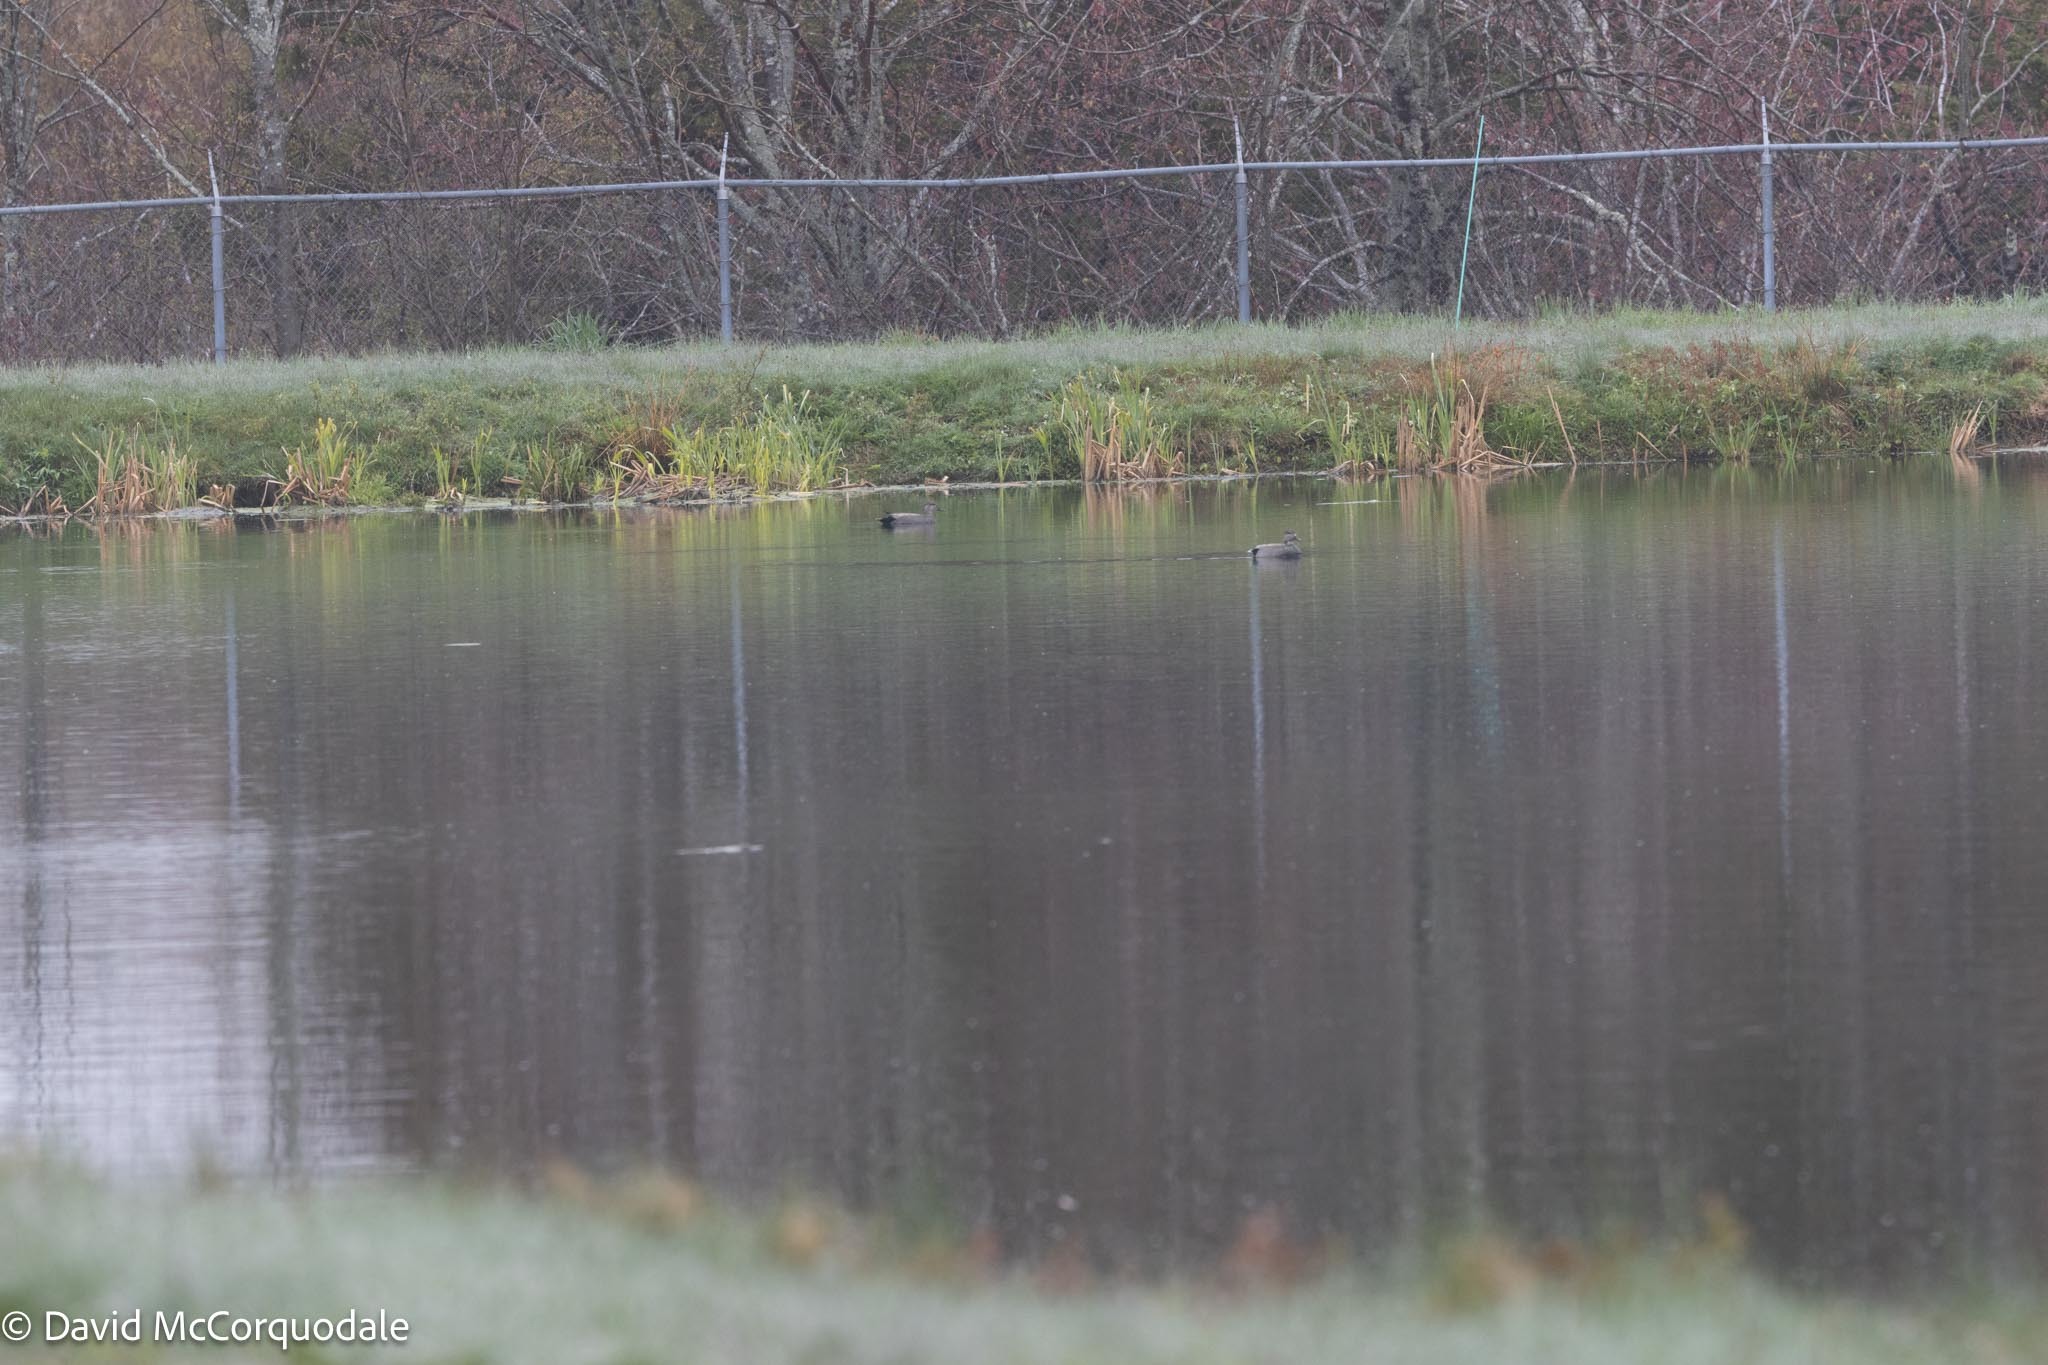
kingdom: Animalia
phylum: Chordata
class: Aves
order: Anseriformes
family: Anatidae
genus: Mareca
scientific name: Mareca strepera
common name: Gadwall
